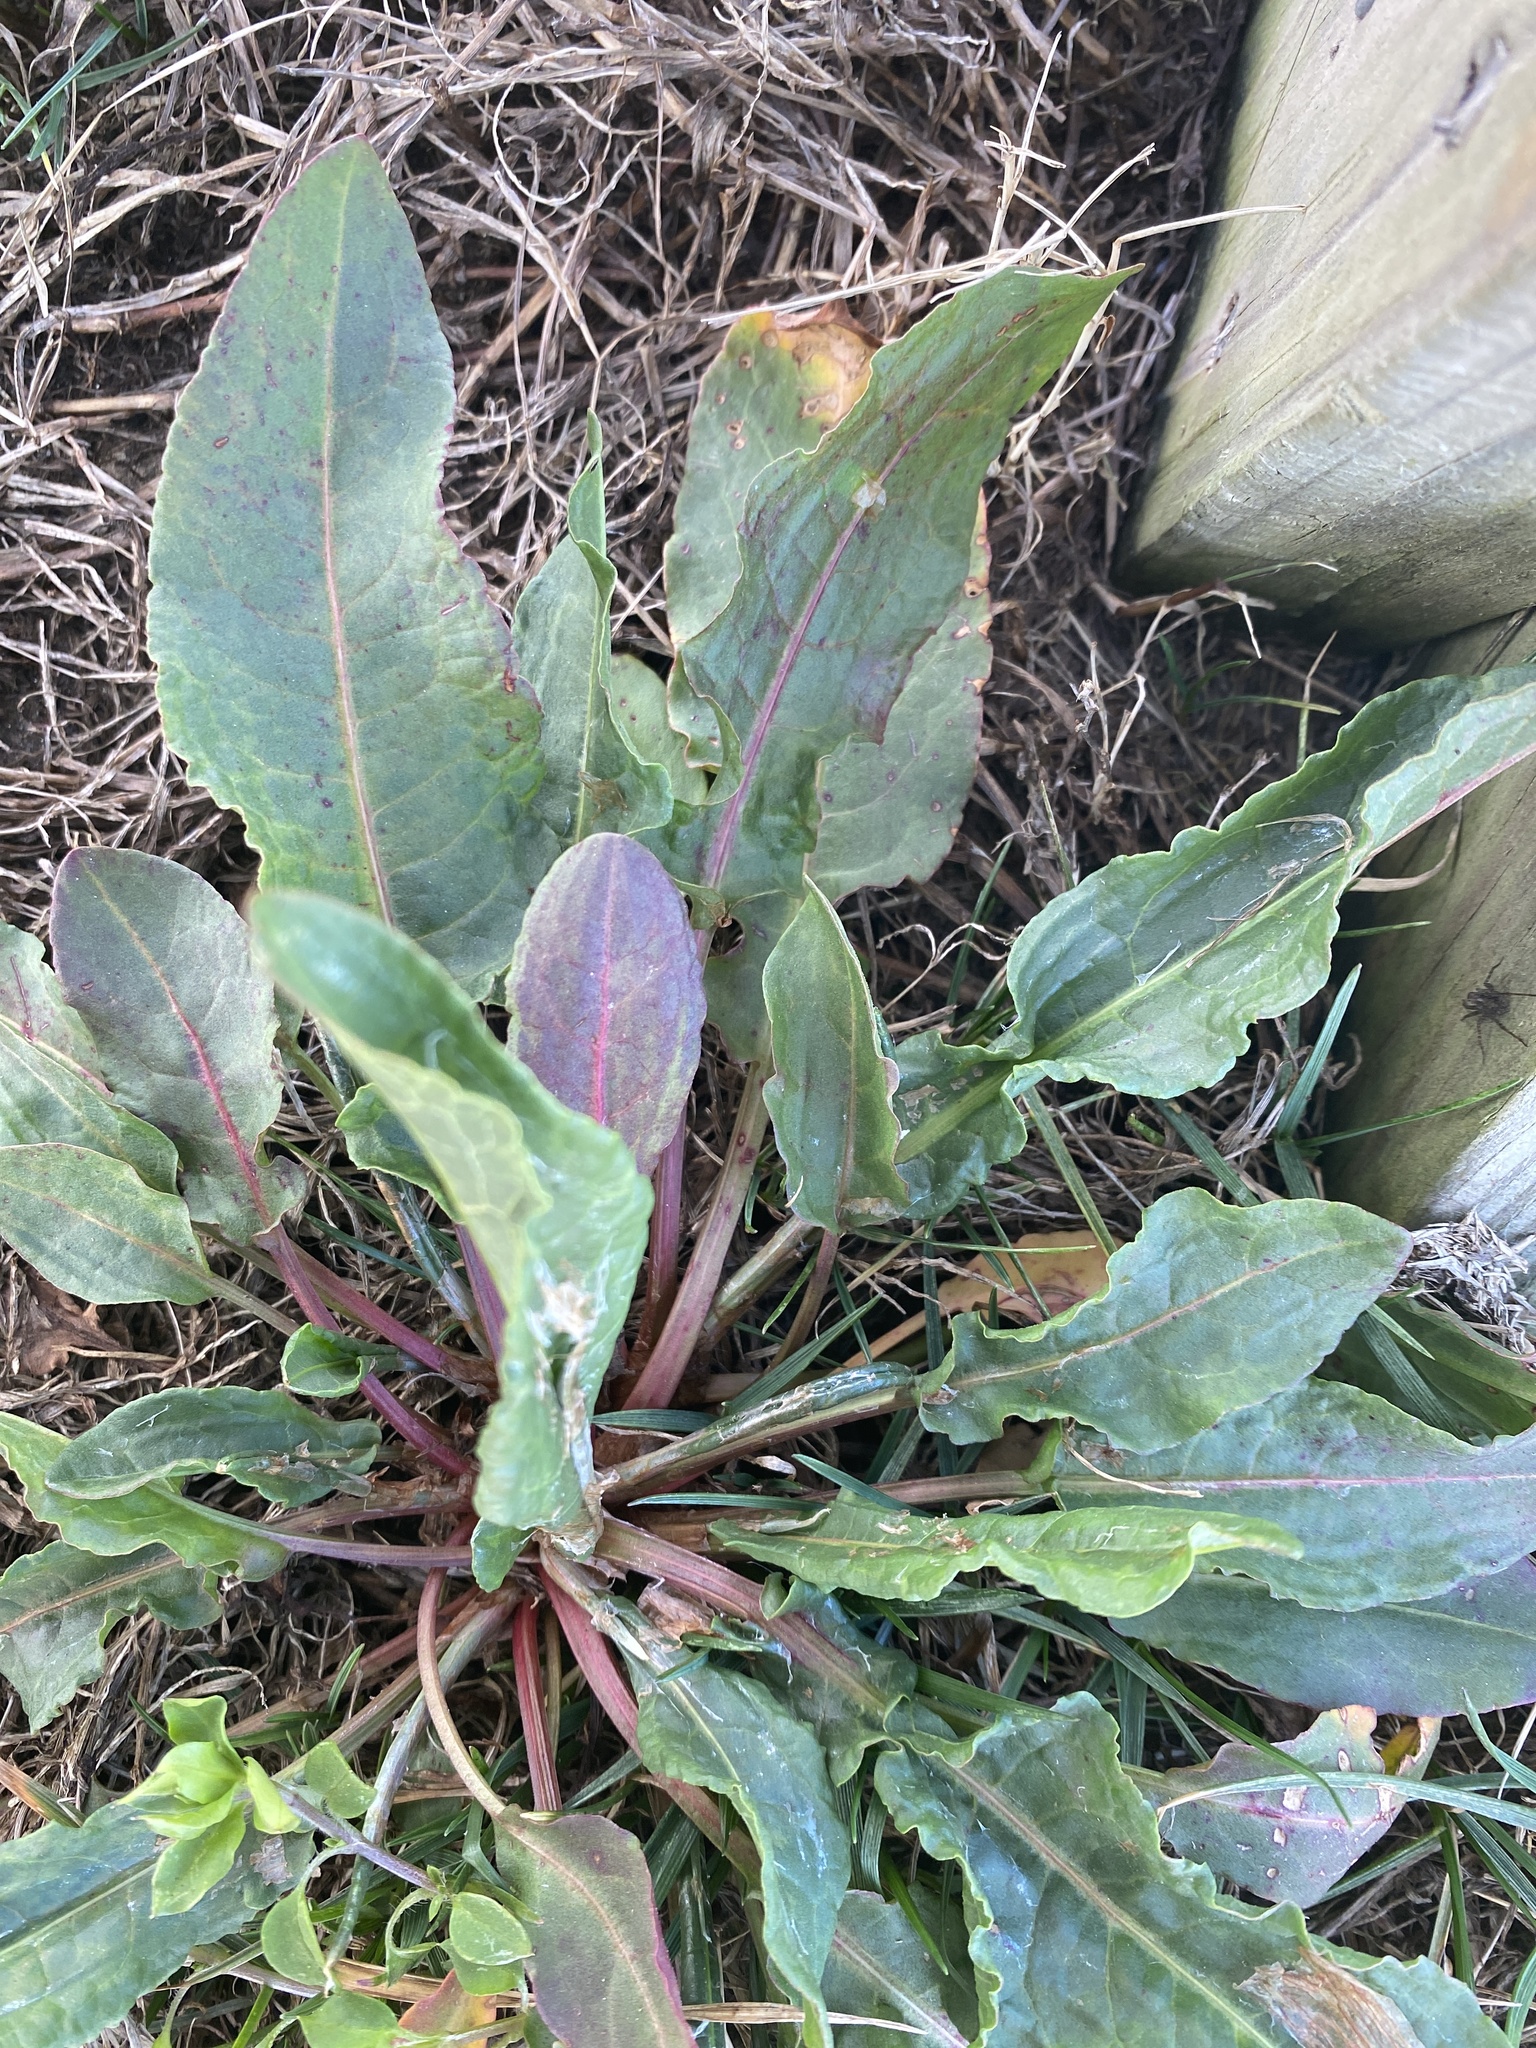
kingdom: Plantae
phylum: Tracheophyta
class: Magnoliopsida
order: Caryophyllales
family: Polygonaceae
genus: Rumex
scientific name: Rumex crispus
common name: Curled dock
